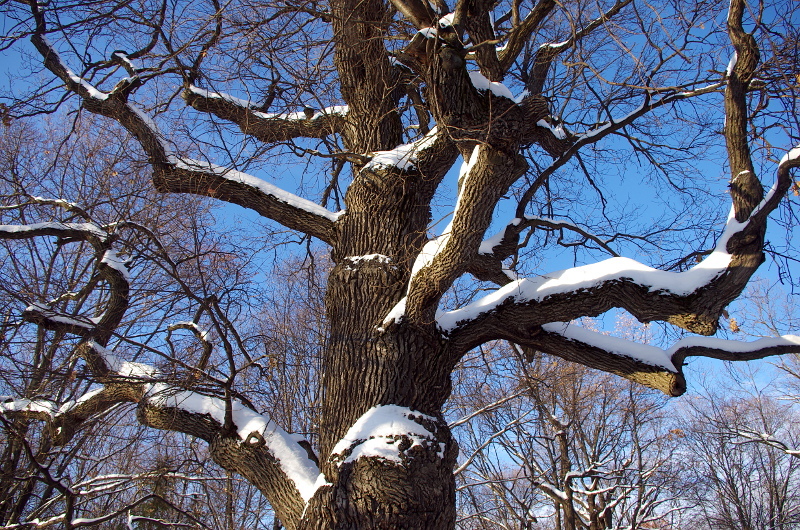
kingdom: Plantae
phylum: Tracheophyta
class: Magnoliopsida
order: Fagales
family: Fagaceae
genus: Quercus
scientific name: Quercus robur
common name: Pedunculate oak
